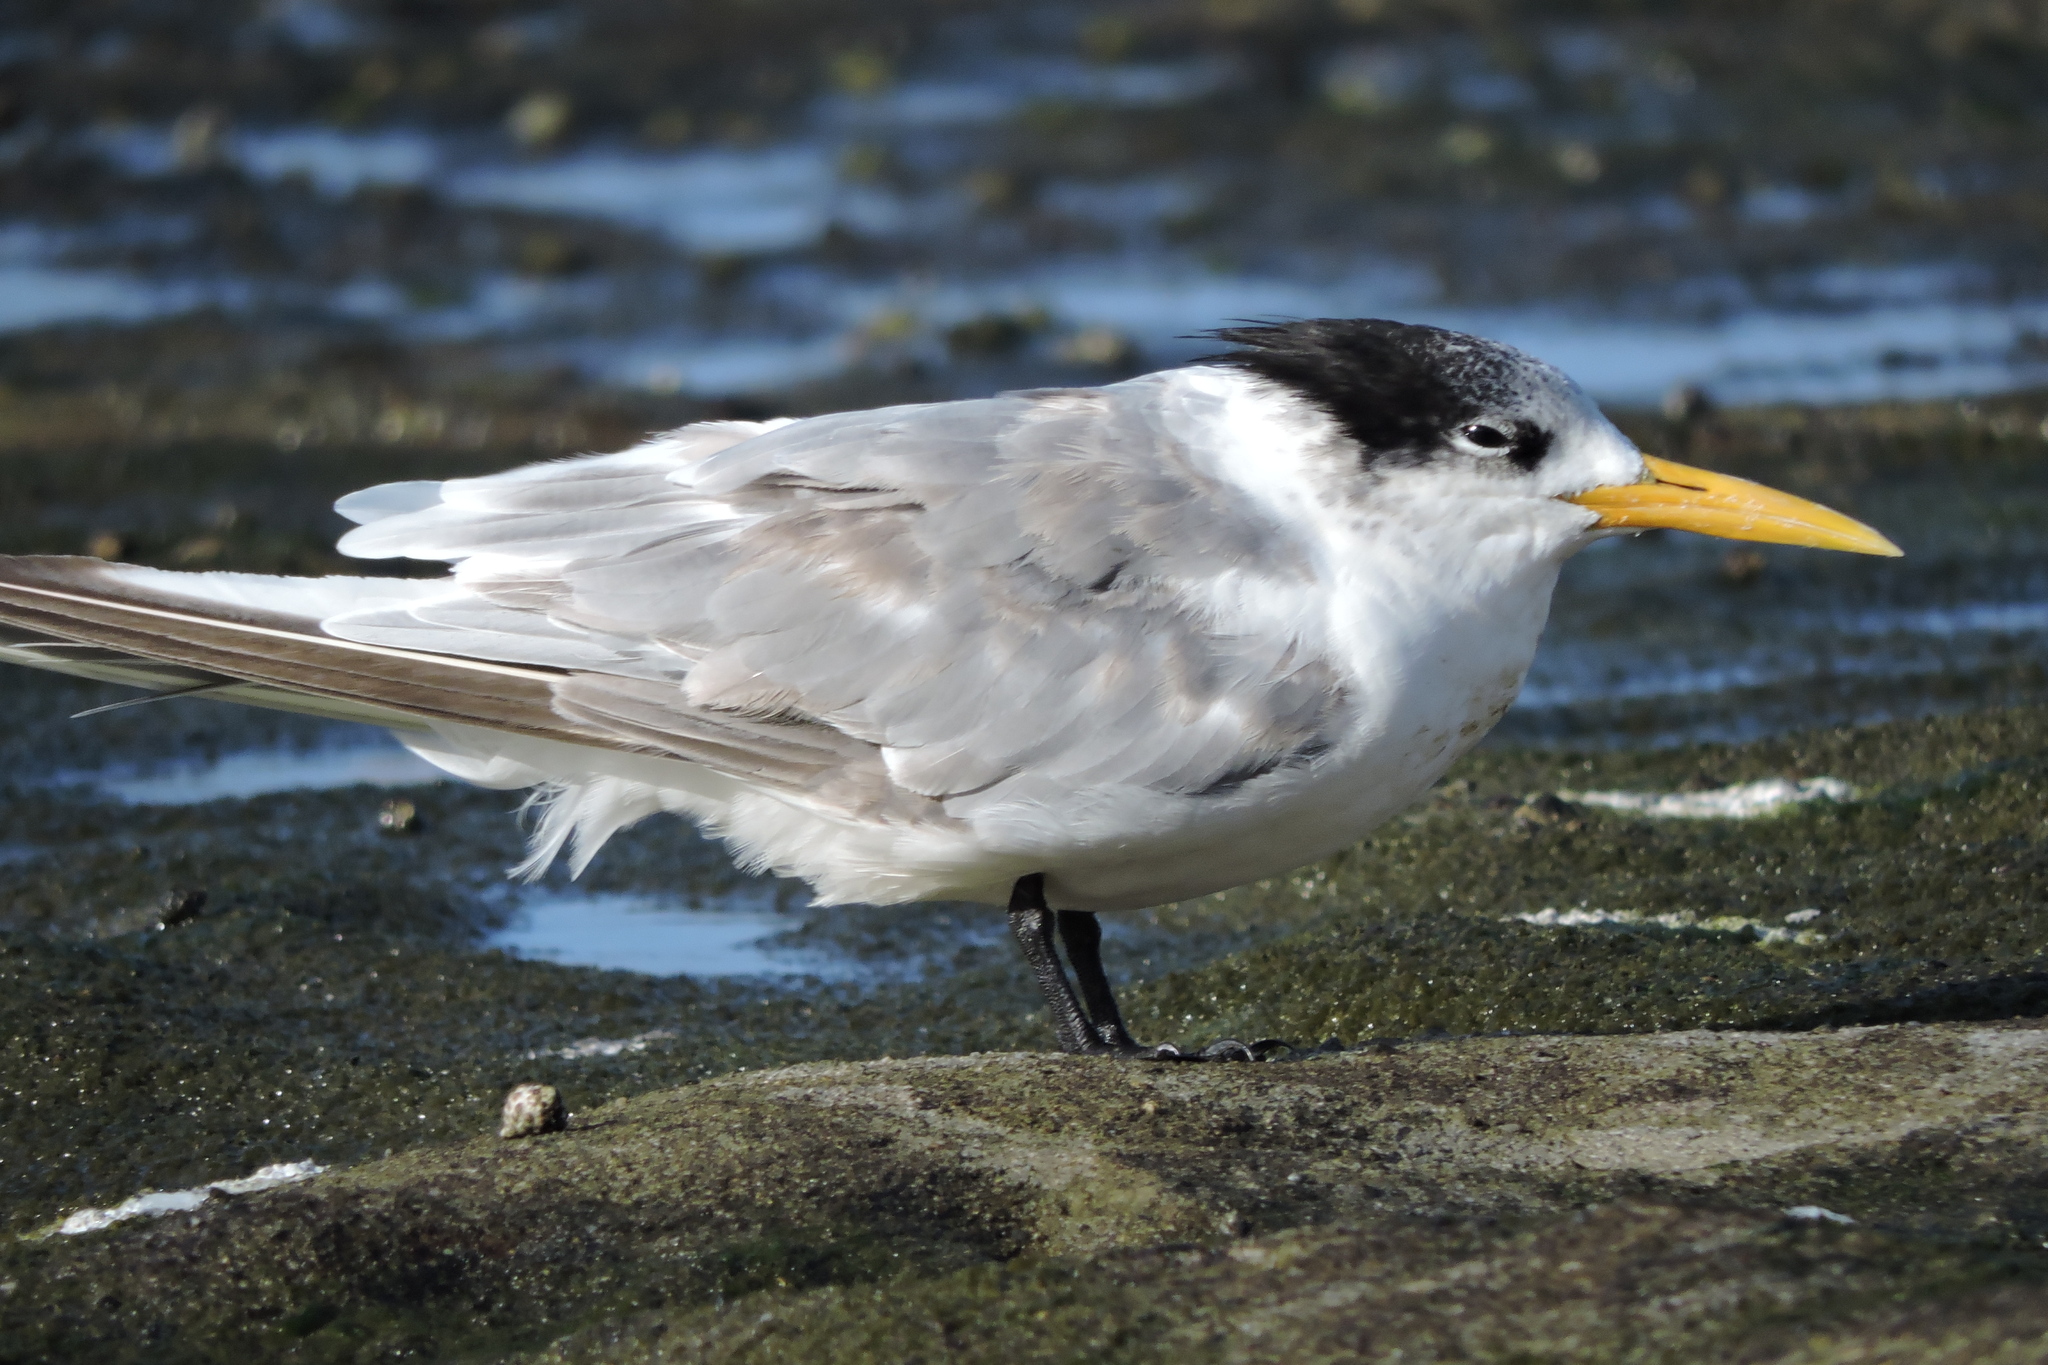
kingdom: Animalia
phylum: Chordata
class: Aves
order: Charadriiformes
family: Laridae
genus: Thalasseus
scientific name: Thalasseus bergii
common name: Greater crested tern
